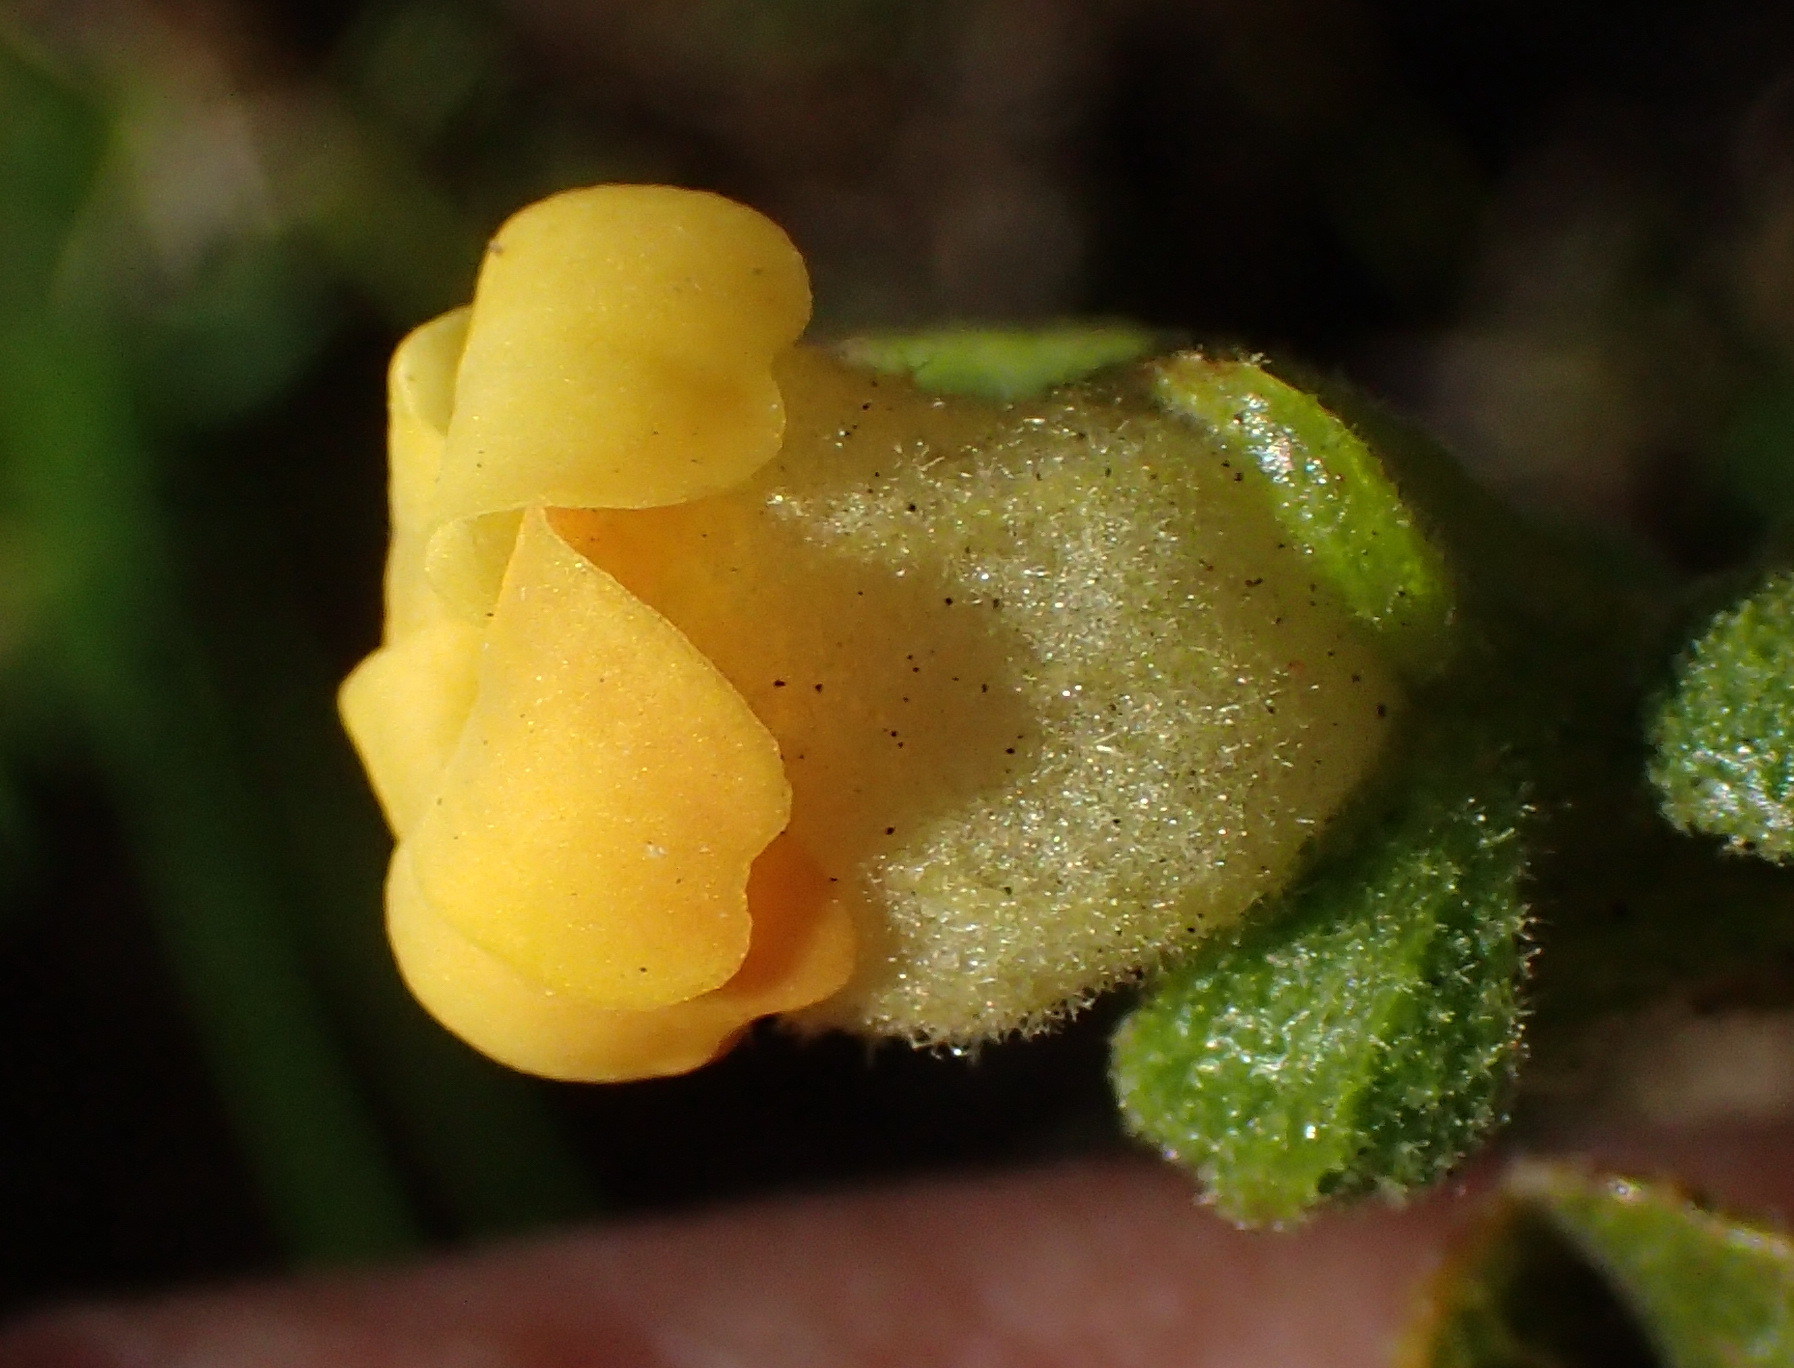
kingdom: Plantae
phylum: Tracheophyta
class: Magnoliopsida
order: Malvales
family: Malvaceae
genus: Hermannia
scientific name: Hermannia salviifolia
